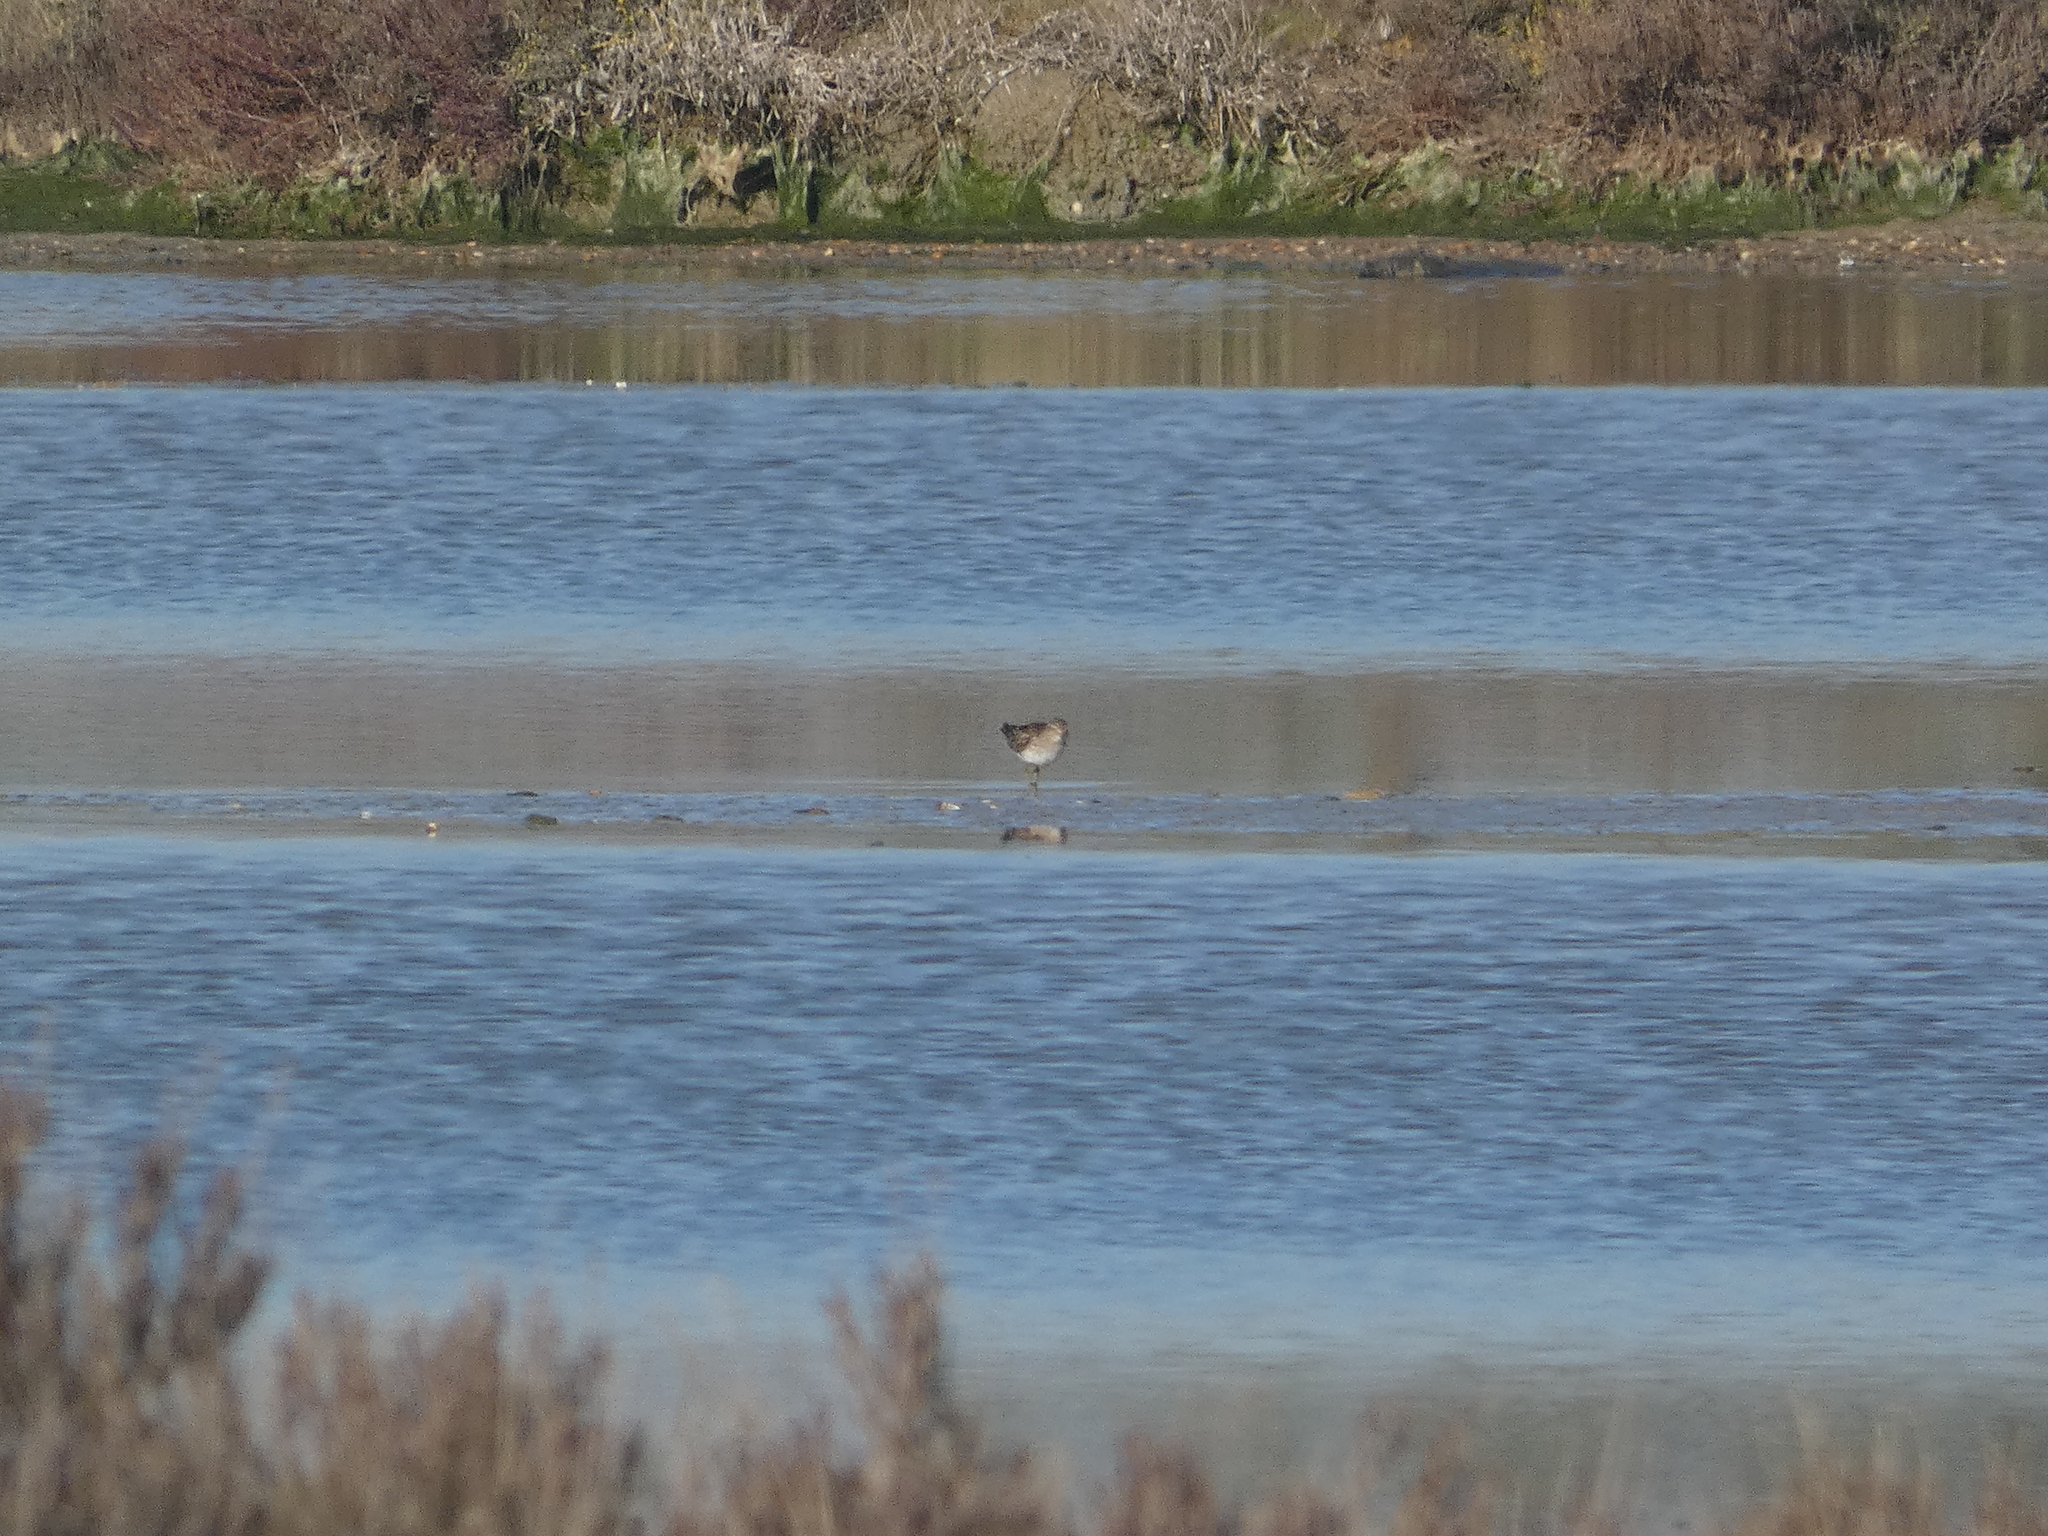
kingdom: Animalia
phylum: Chordata
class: Aves
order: Charadriiformes
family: Scolopacidae
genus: Calidris
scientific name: Calidris minutilla
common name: Least sandpiper
